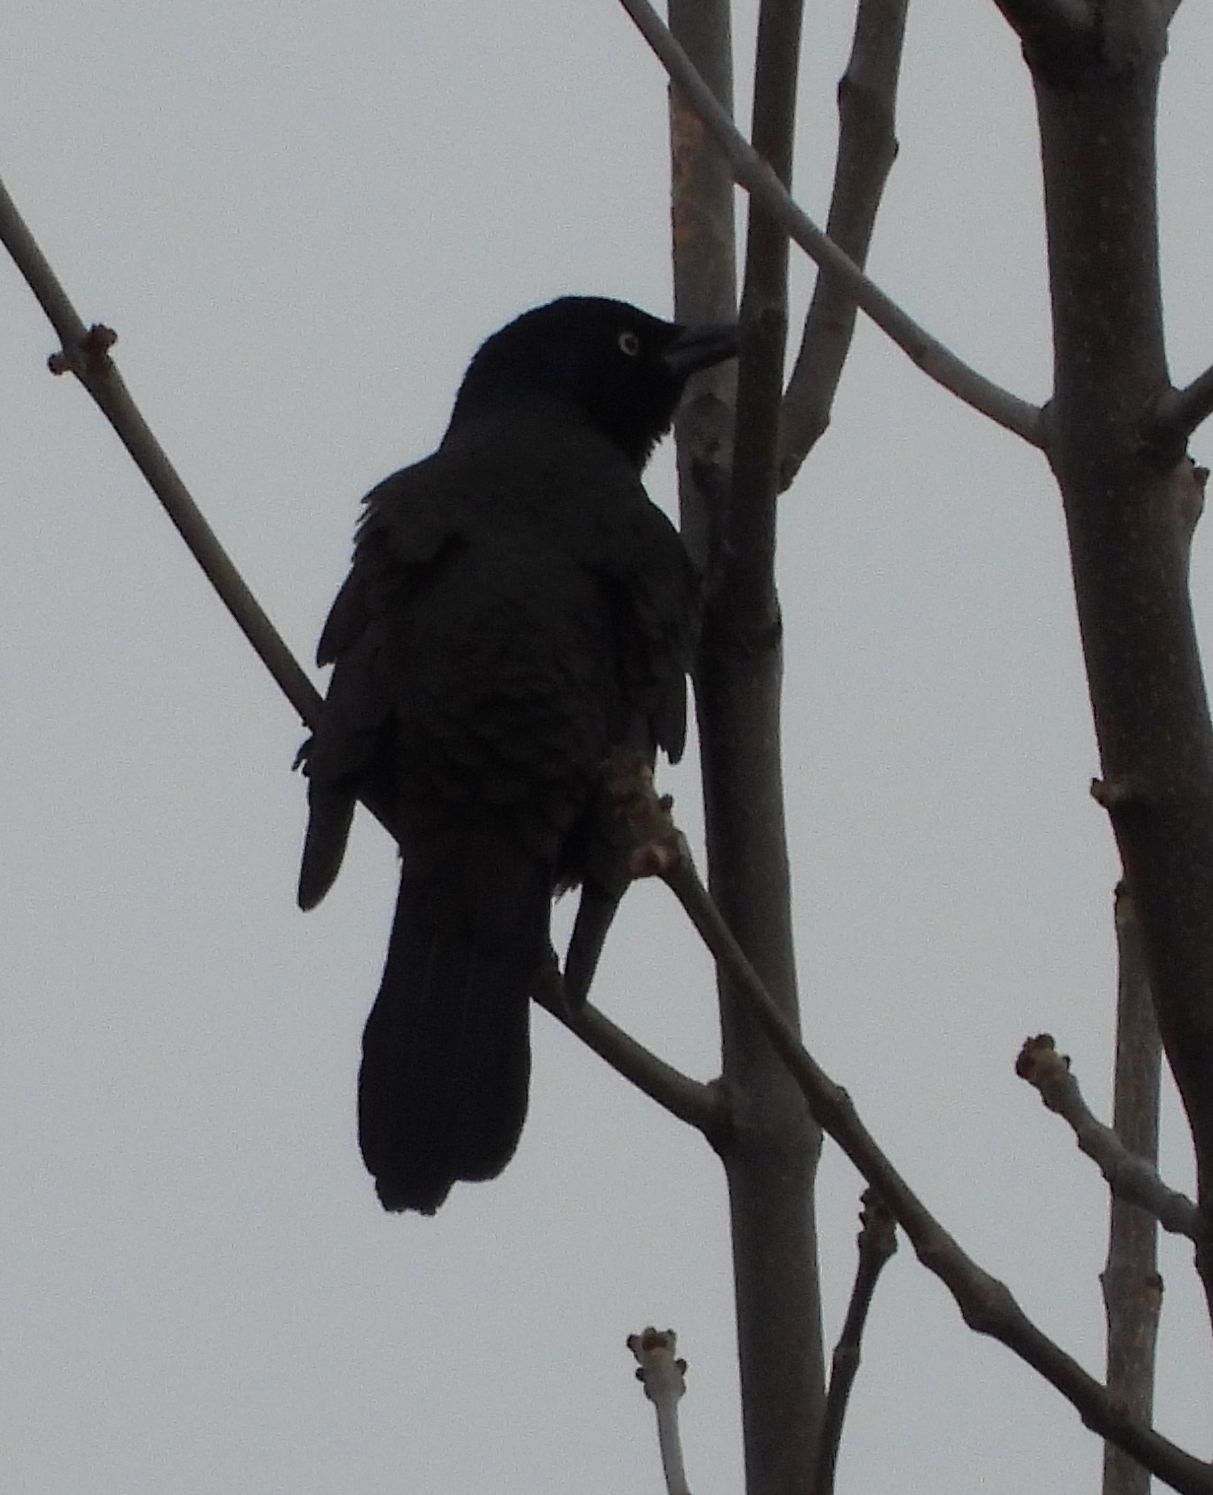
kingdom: Animalia
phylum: Chordata
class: Aves
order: Passeriformes
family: Icteridae
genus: Quiscalus
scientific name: Quiscalus quiscula
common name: Common grackle
